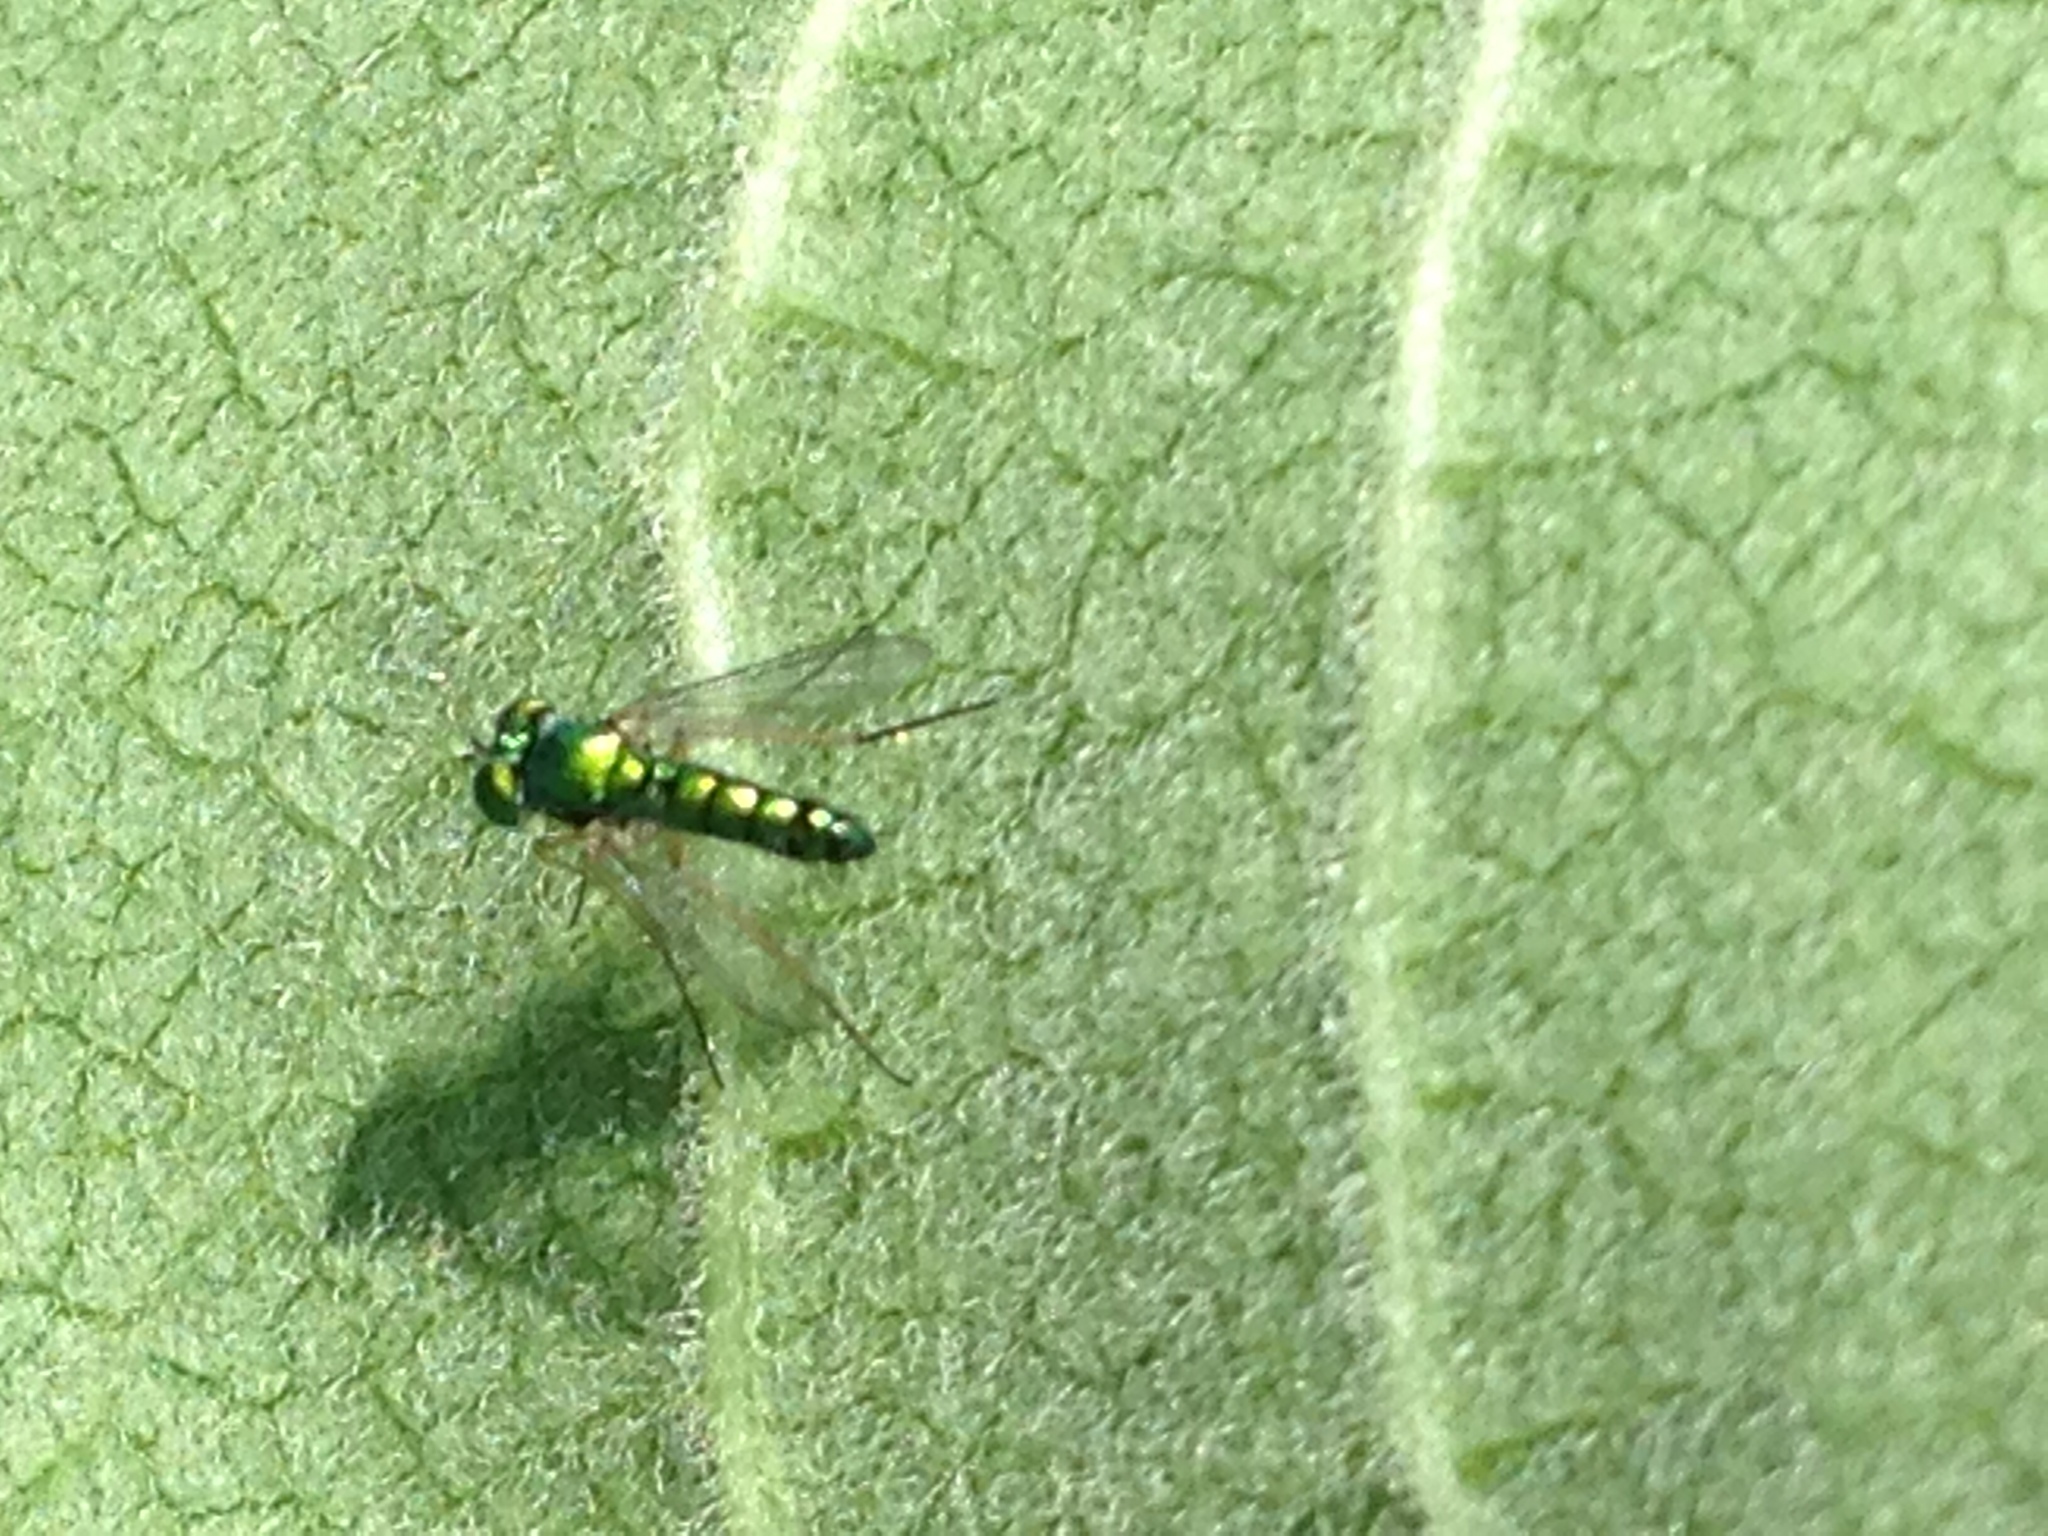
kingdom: Animalia
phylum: Arthropoda
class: Insecta
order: Diptera
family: Dolichopodidae
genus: Condylostylus
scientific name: Condylostylus flavipes
